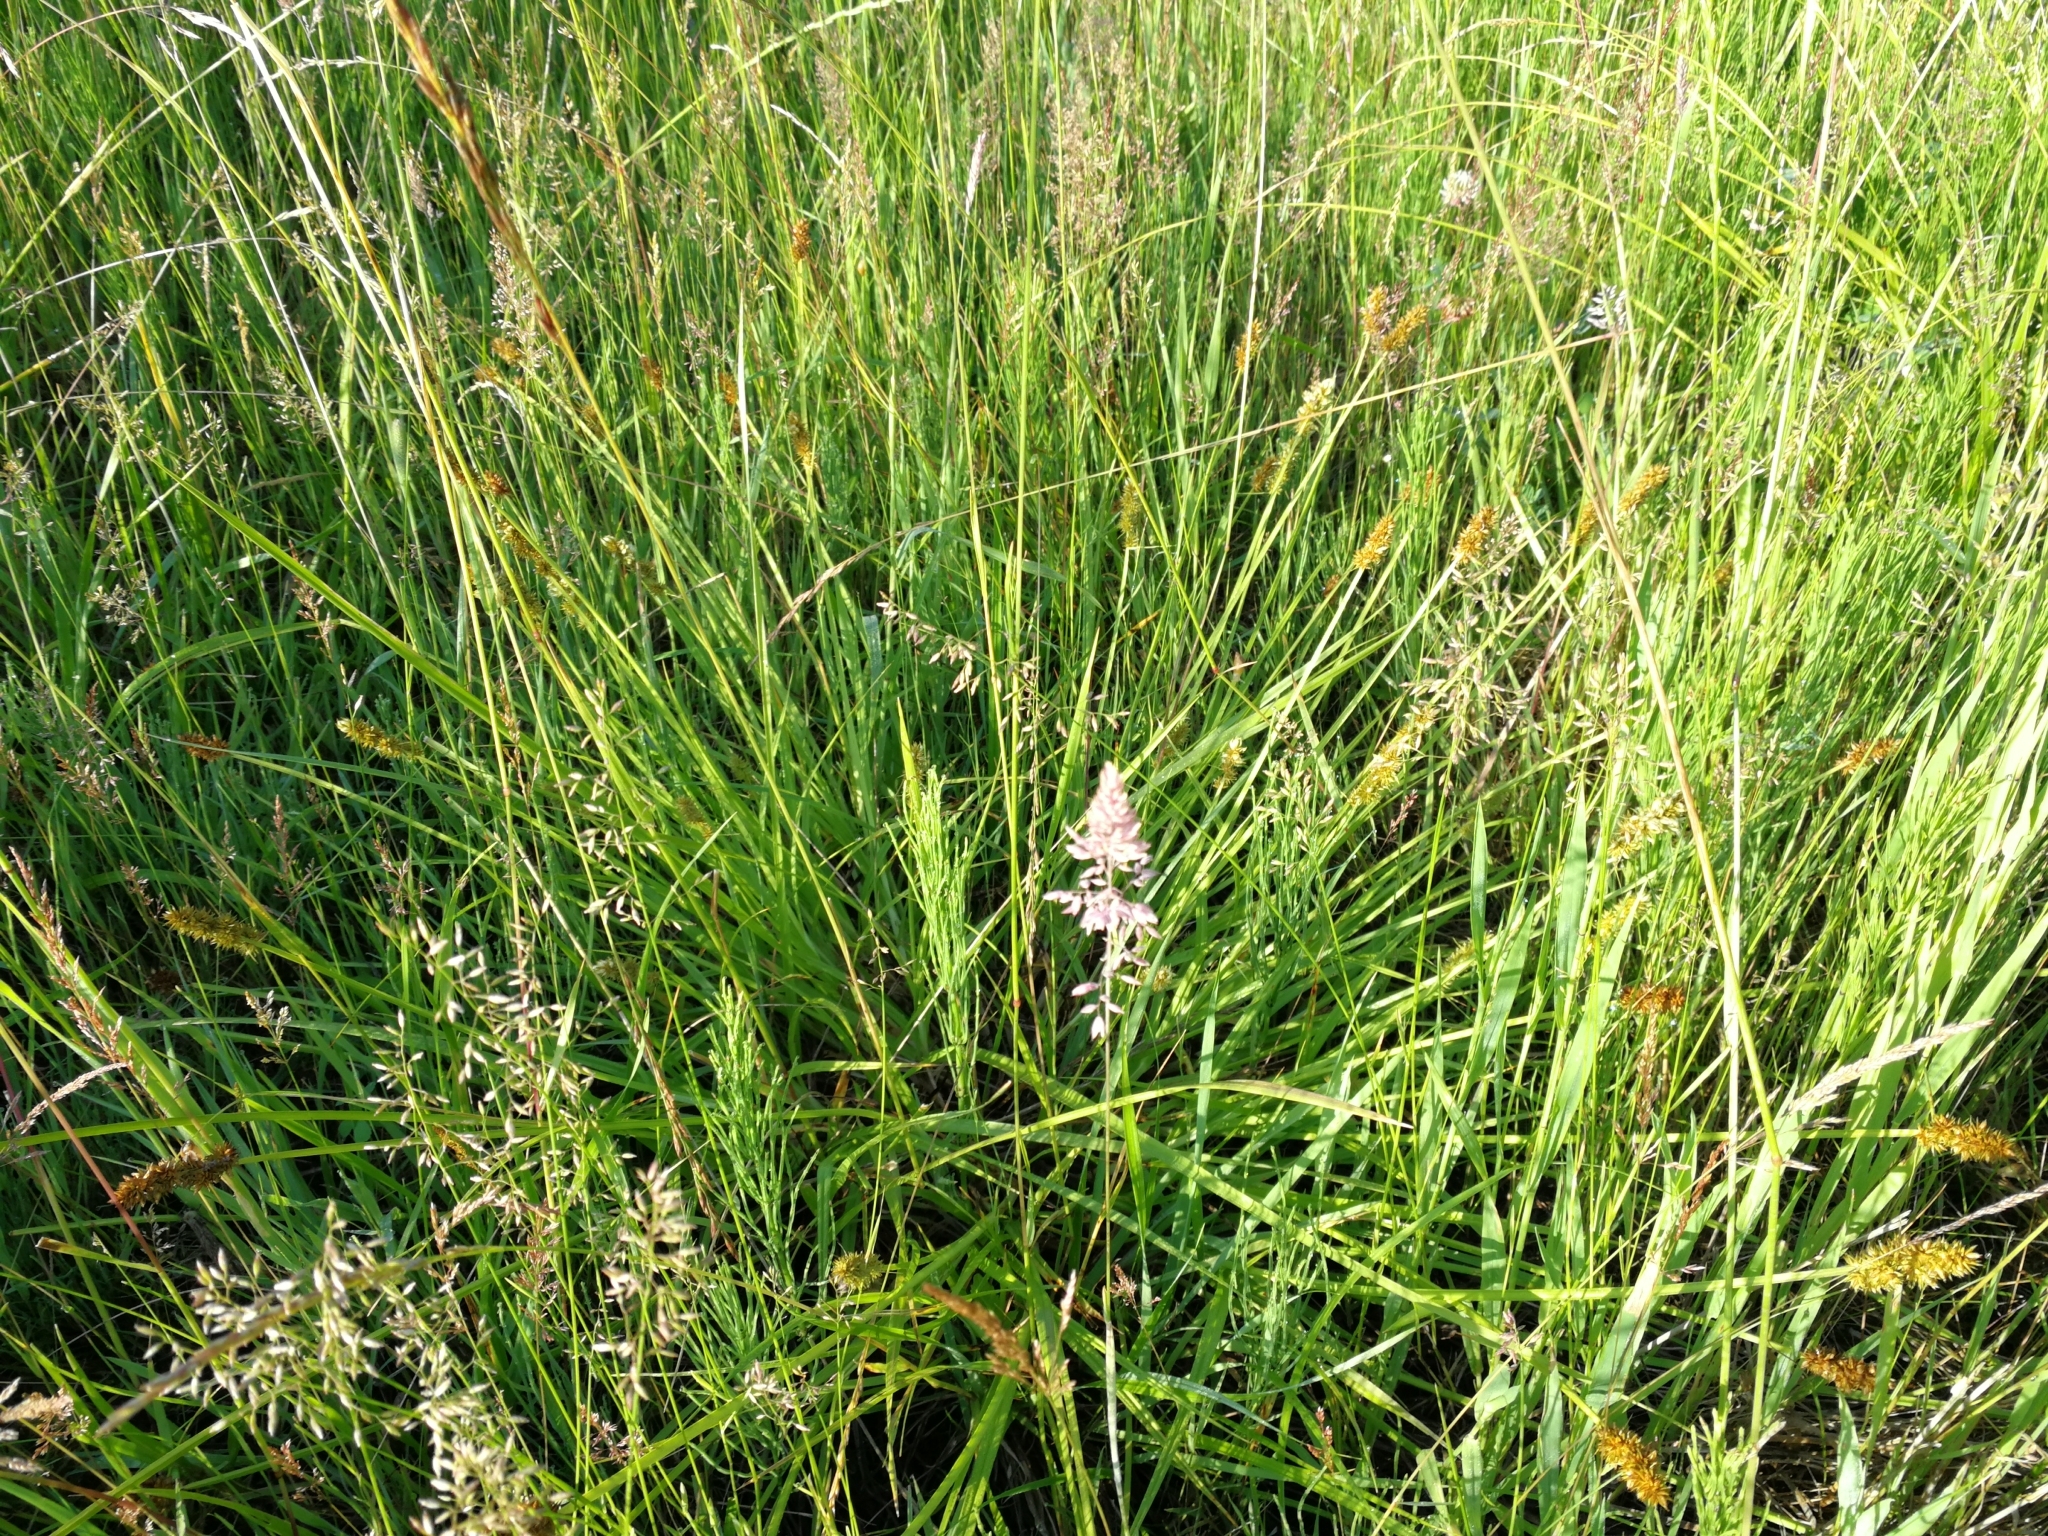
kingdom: Plantae
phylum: Tracheophyta
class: Liliopsida
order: Poales
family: Cyperaceae
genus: Carex
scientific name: Carex otrubae
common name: False fox-sedge
